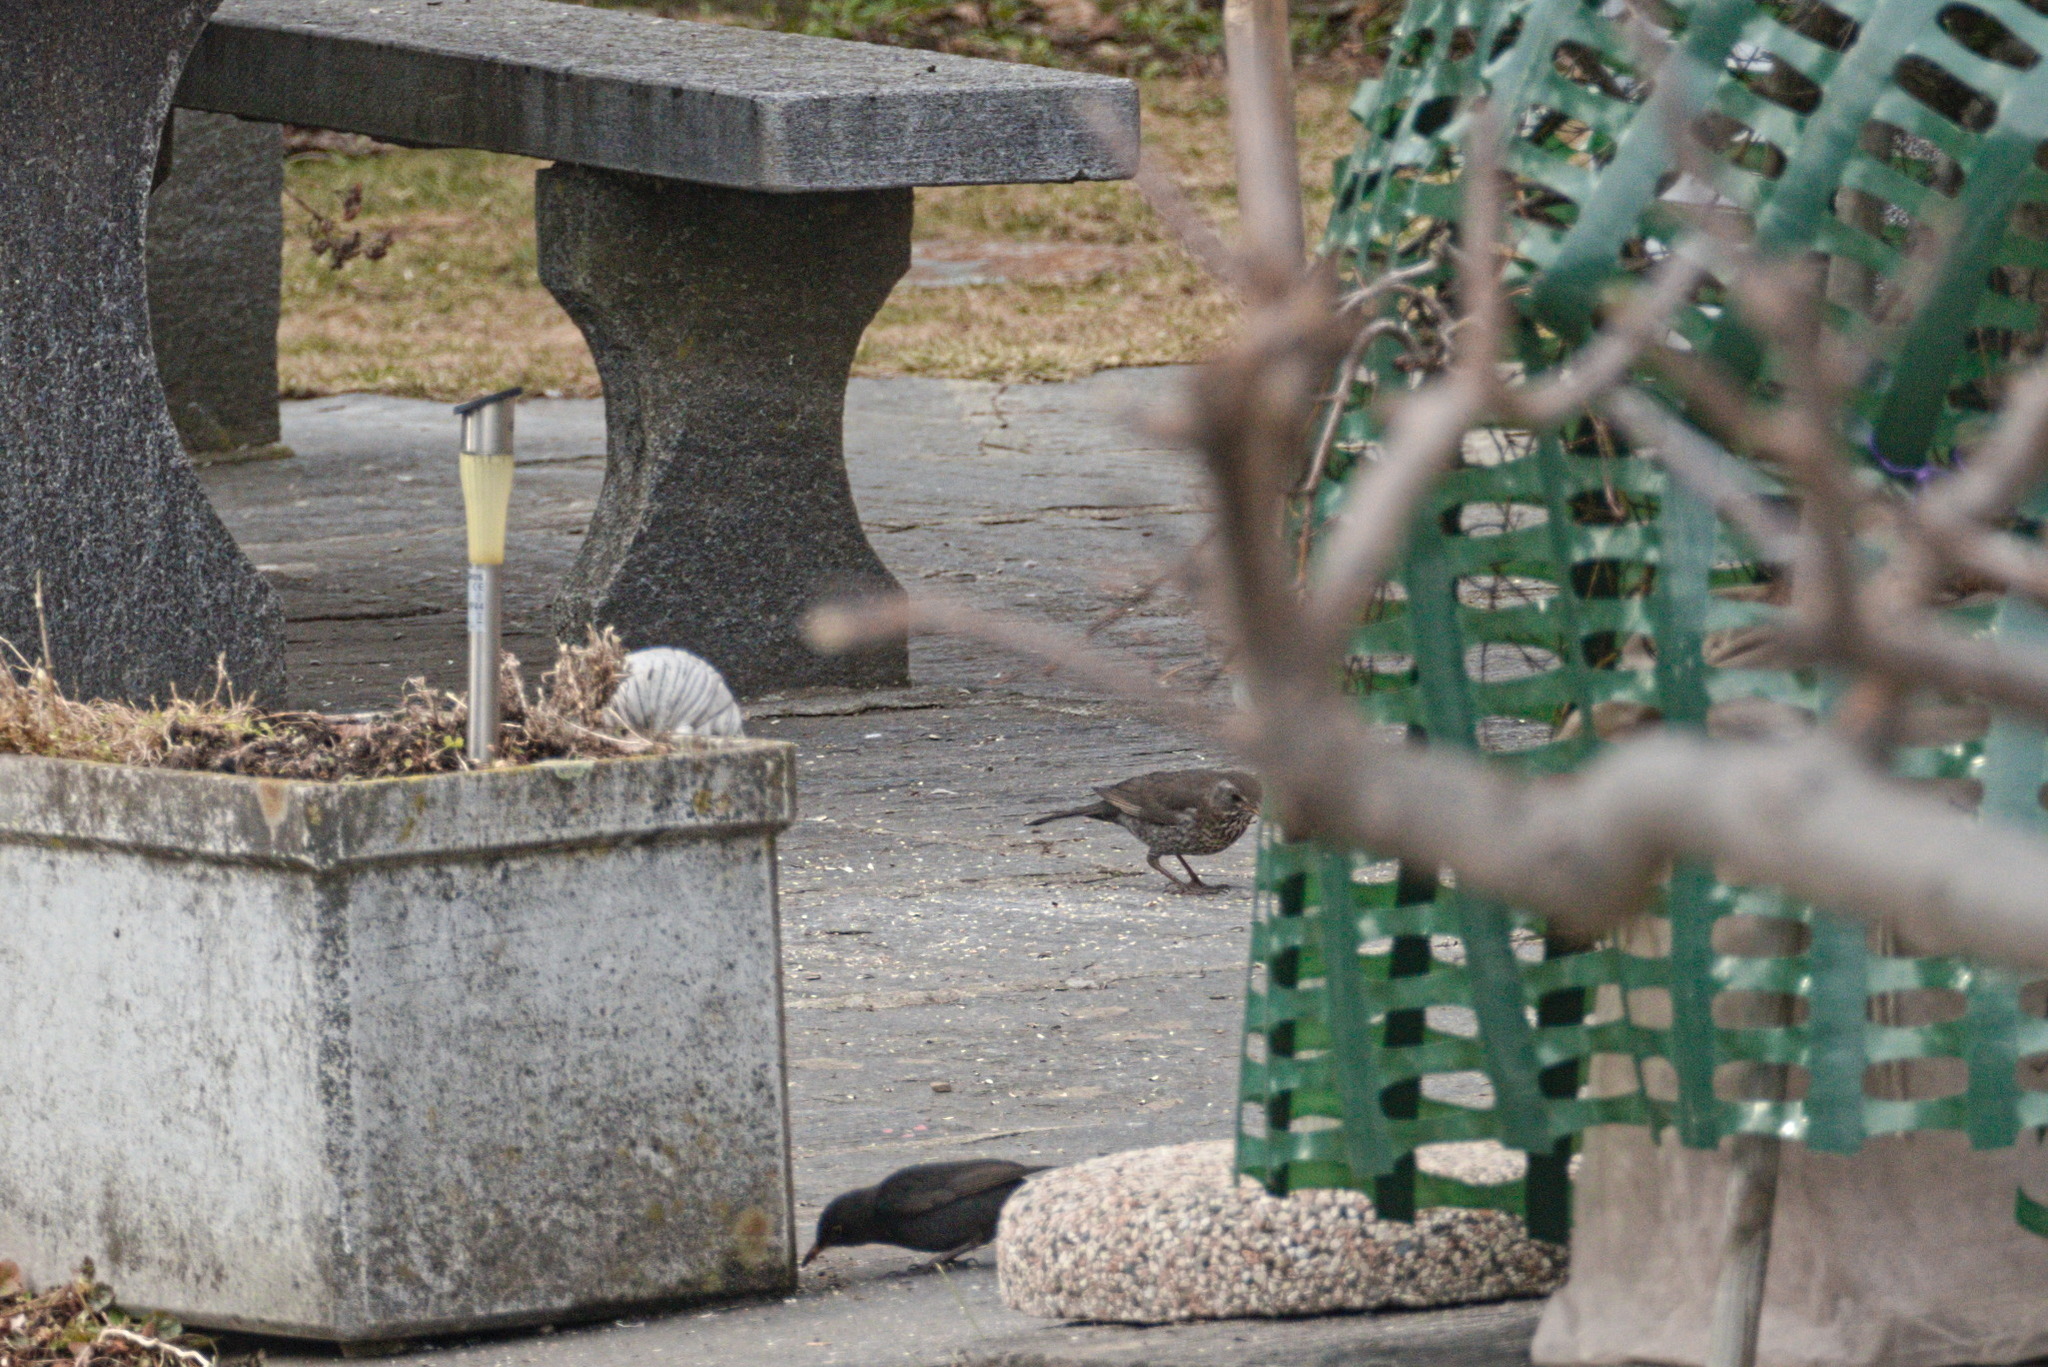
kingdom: Animalia
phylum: Chordata
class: Aves
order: Passeriformes
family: Turdidae
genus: Turdus
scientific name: Turdus merula
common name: Common blackbird
